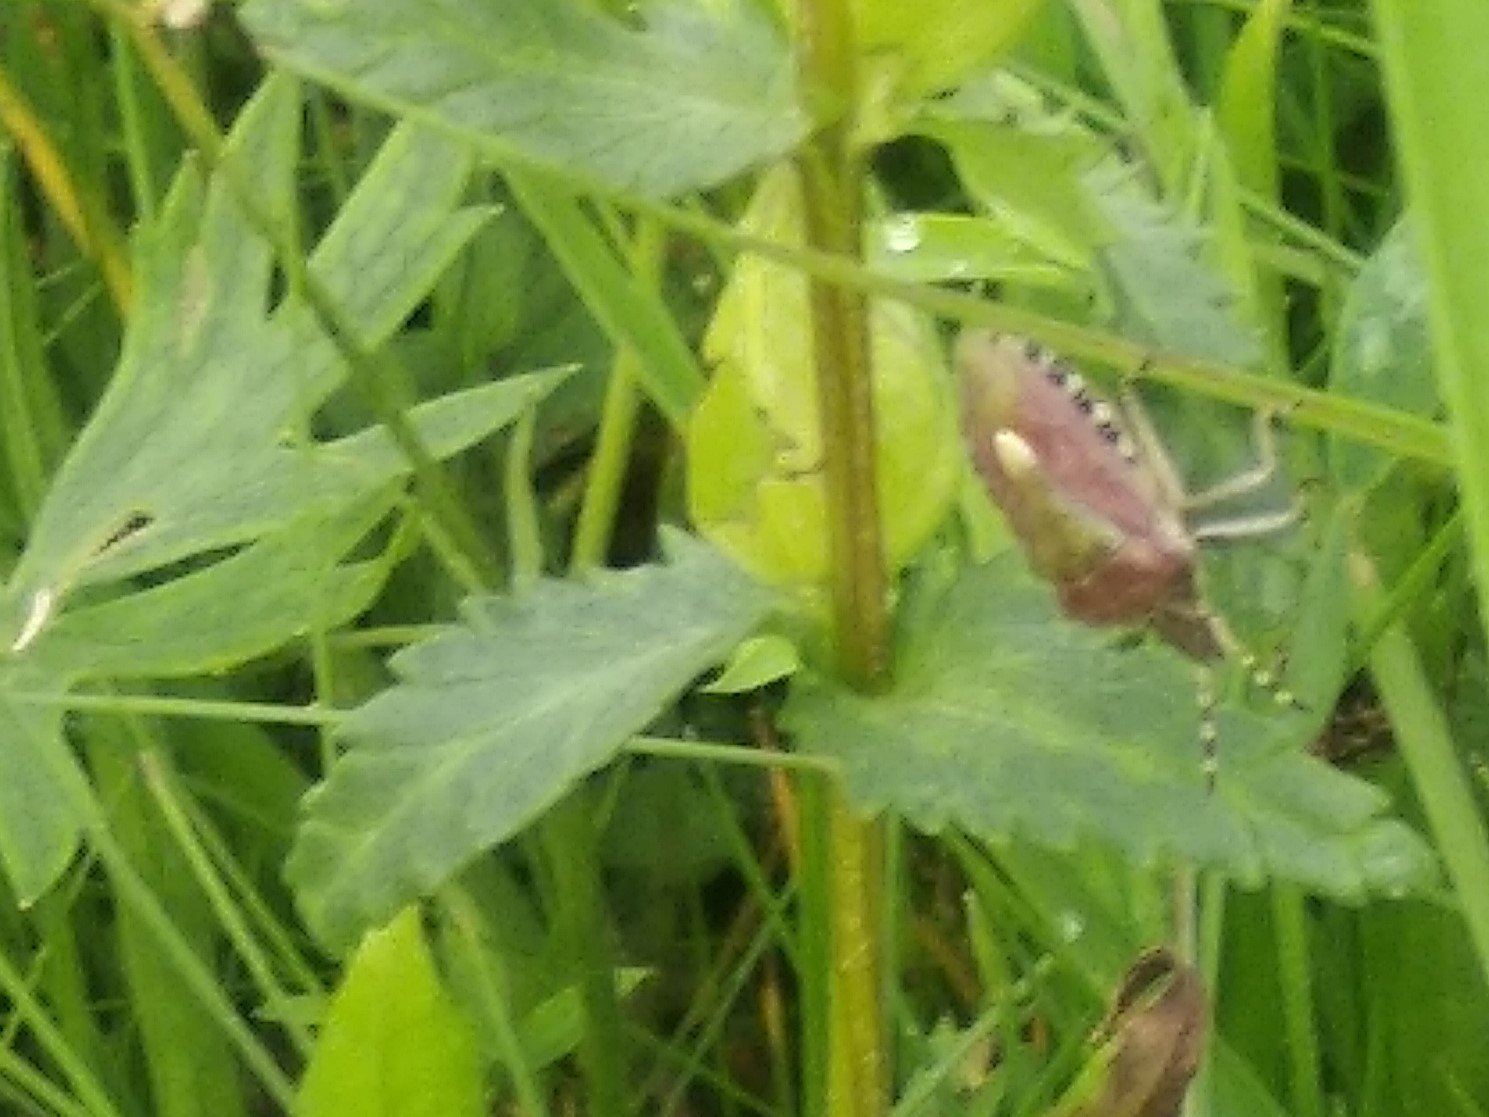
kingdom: Animalia
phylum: Arthropoda
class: Insecta
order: Hemiptera
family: Pentatomidae
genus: Dolycoris
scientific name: Dolycoris baccarum
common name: Sloe bug
